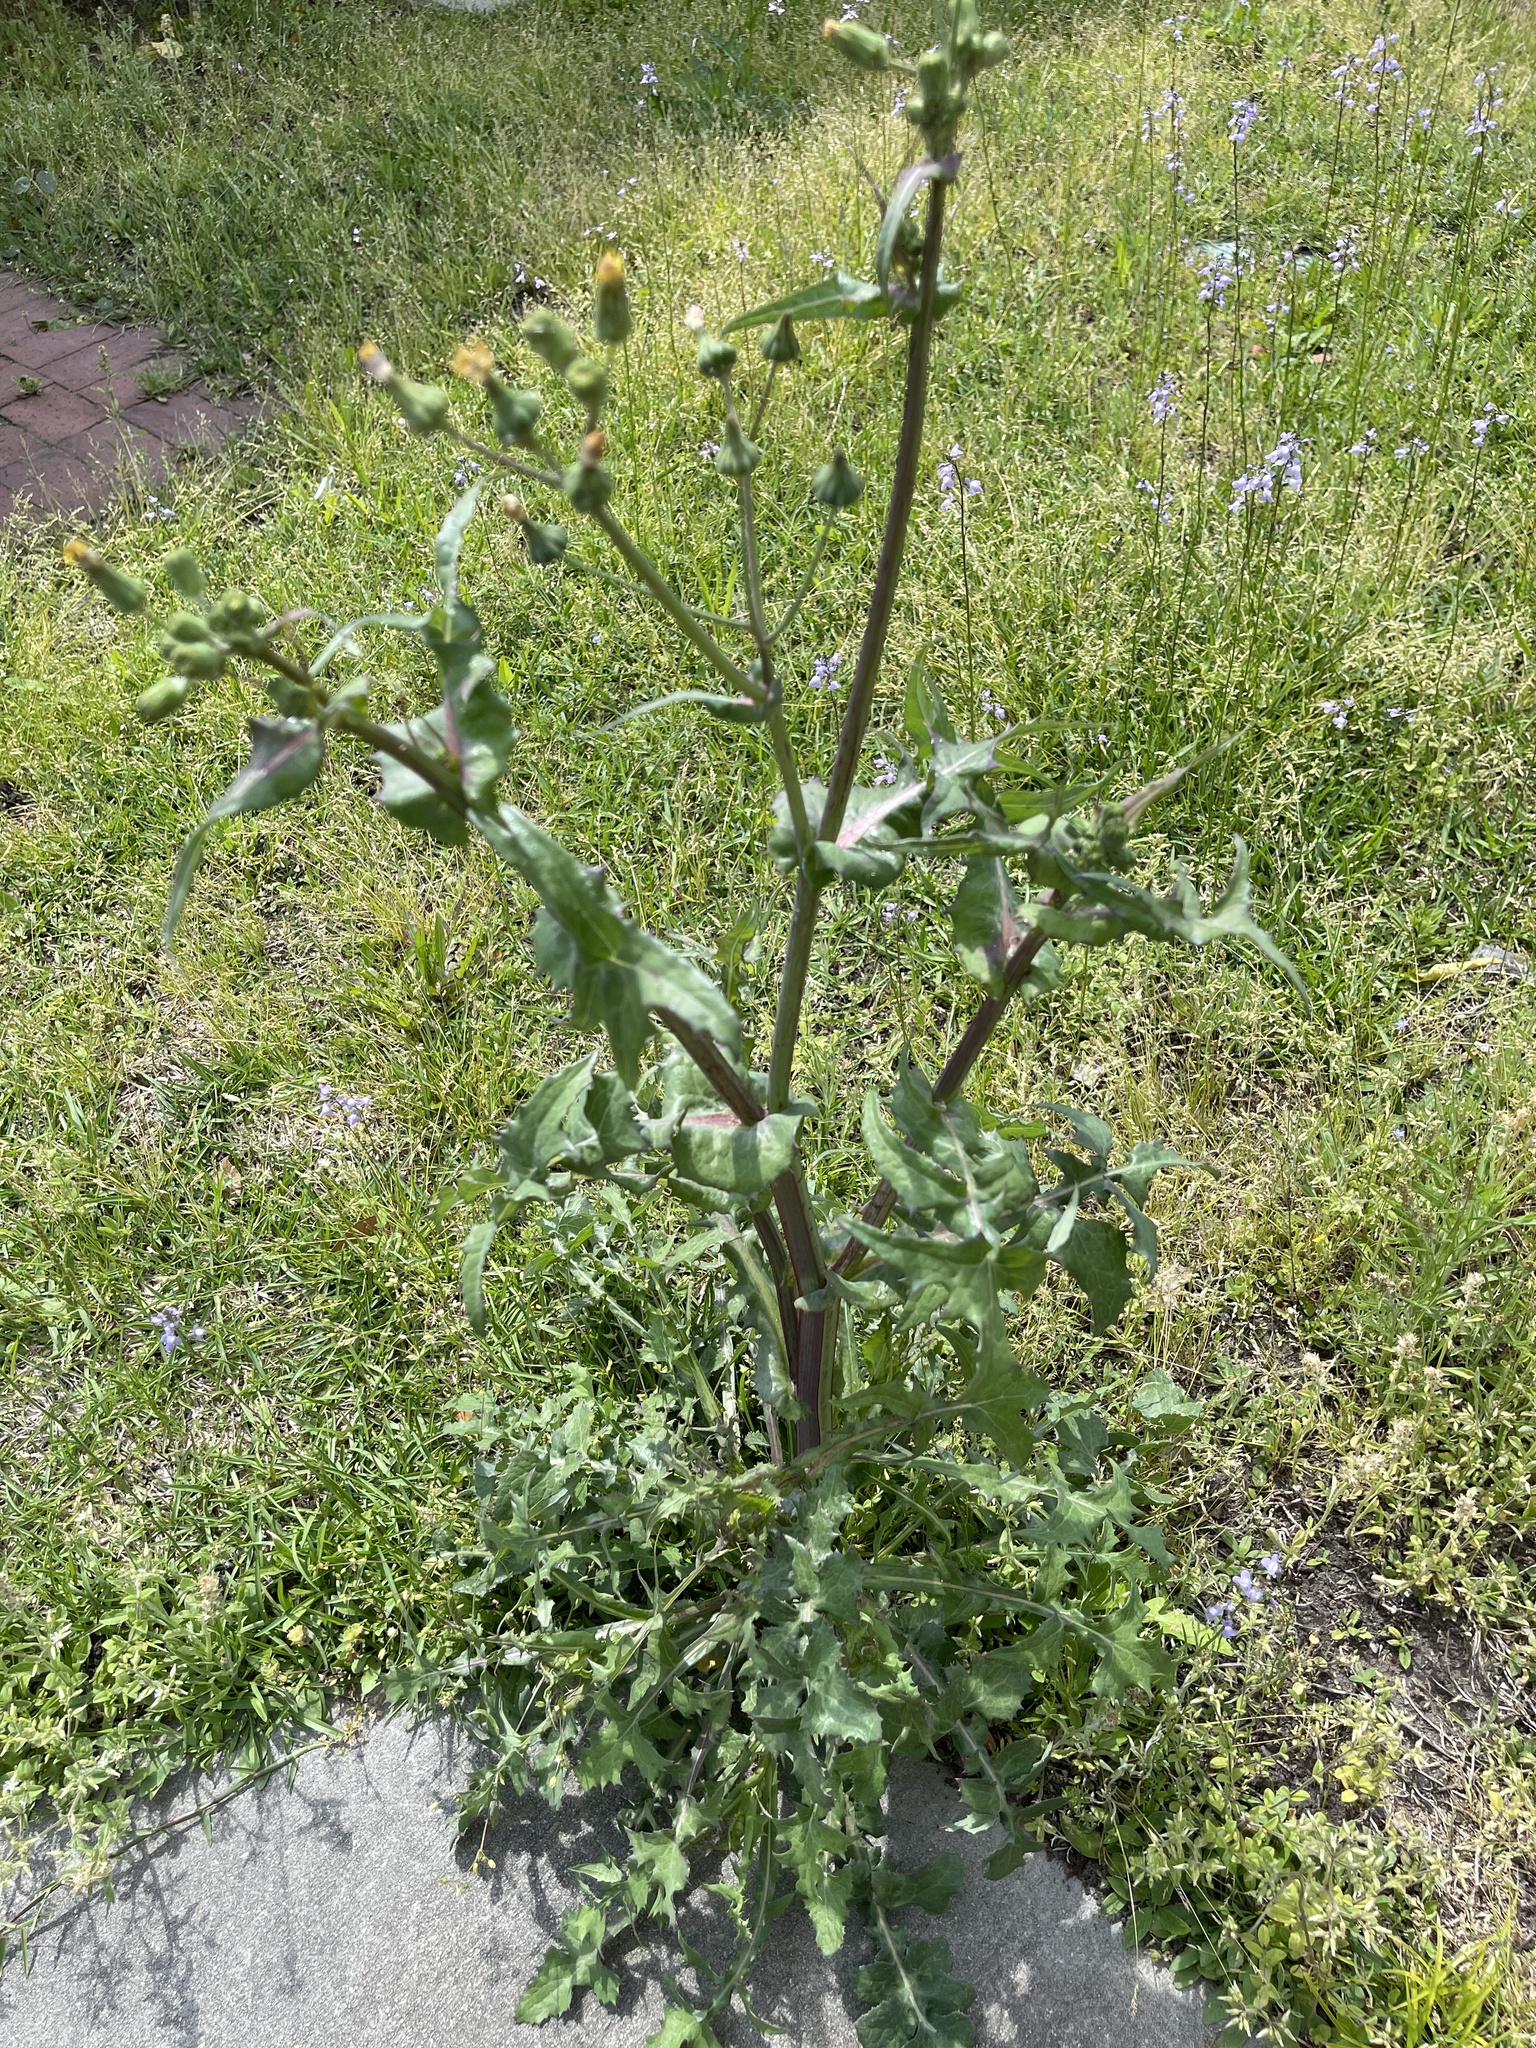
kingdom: Plantae
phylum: Tracheophyta
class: Magnoliopsida
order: Asterales
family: Asteraceae
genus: Sonchus
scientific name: Sonchus oleraceus
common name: Common sowthistle
